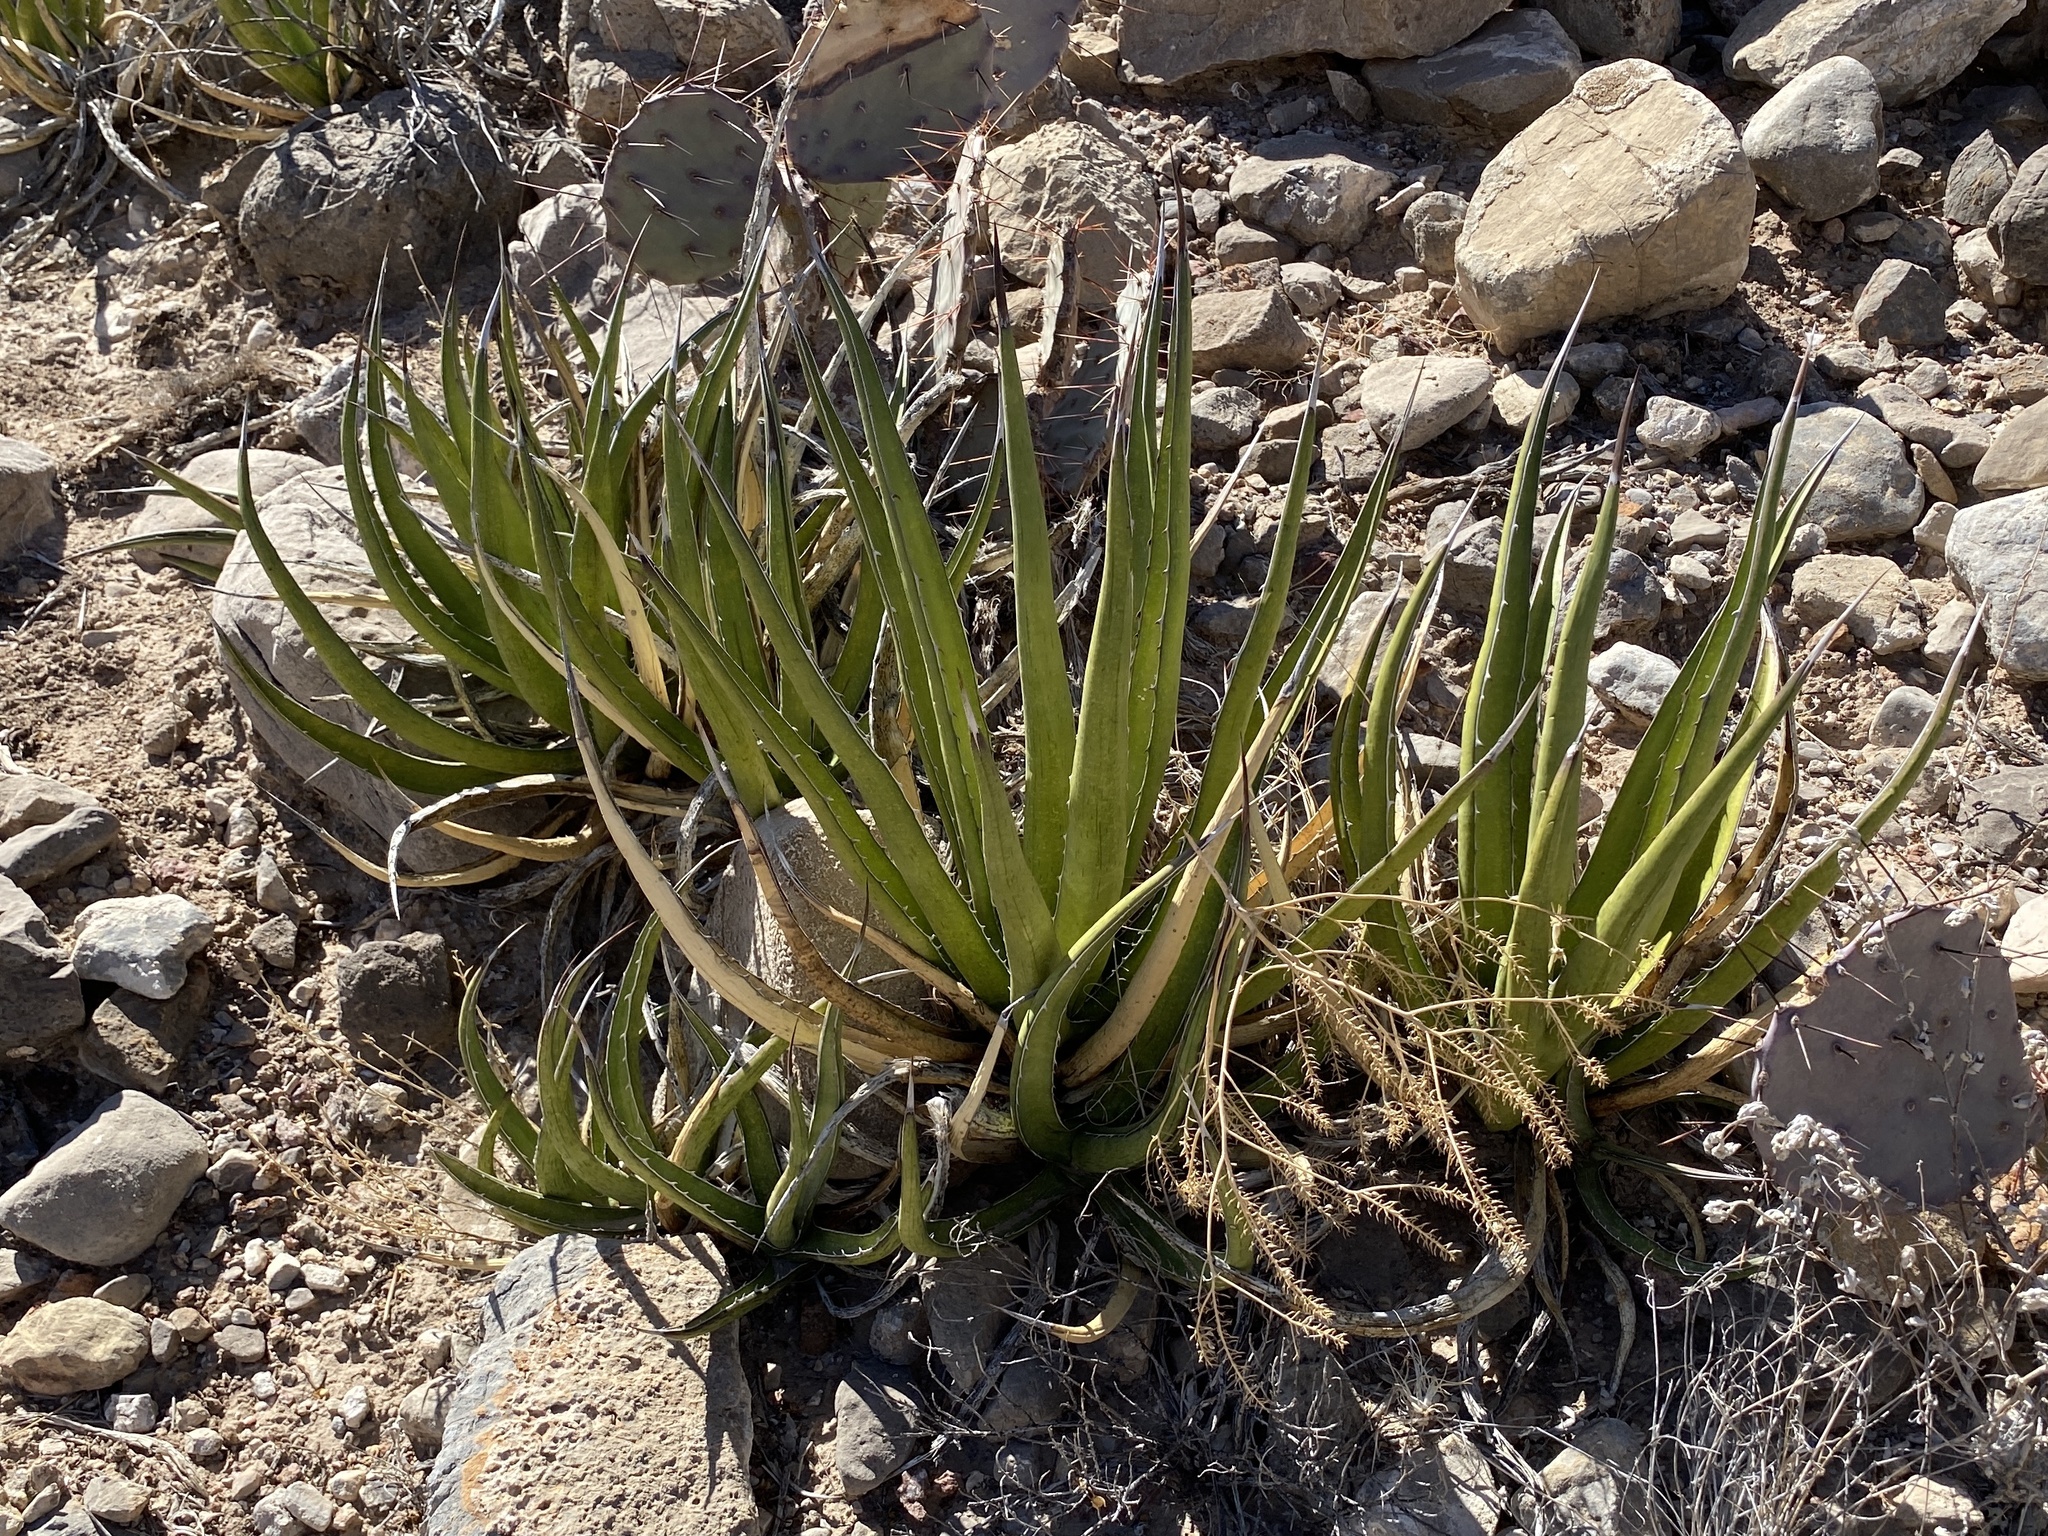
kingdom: Plantae
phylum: Tracheophyta
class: Liliopsida
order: Asparagales
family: Asparagaceae
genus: Agave
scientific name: Agave lechuguilla
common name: Lecheguilla agave
